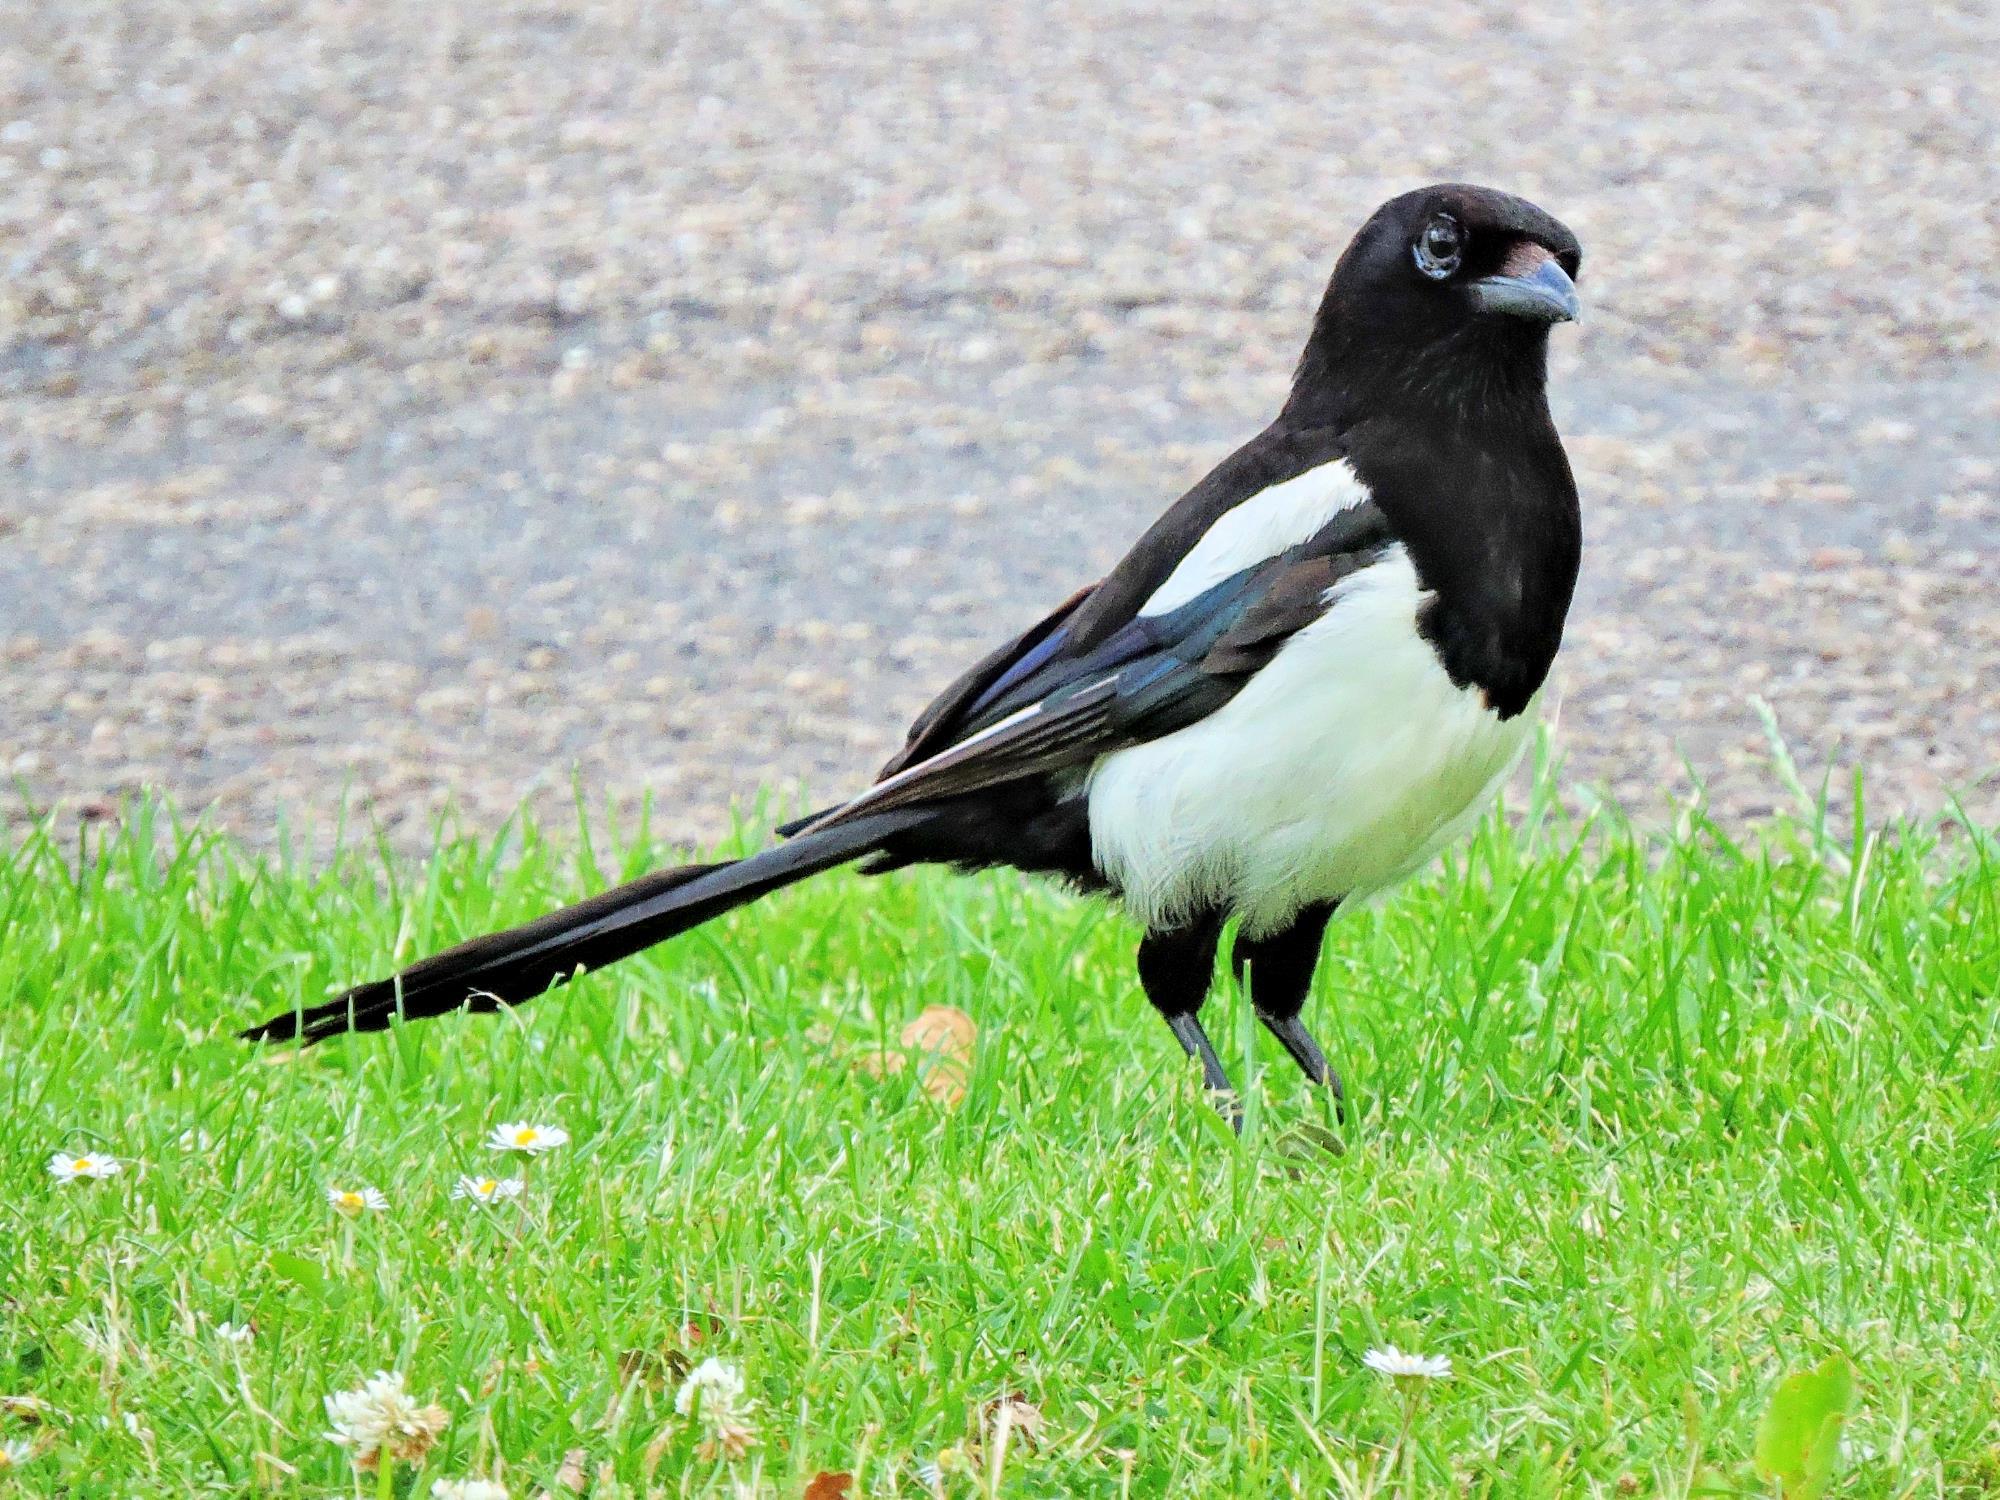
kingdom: Animalia
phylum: Chordata
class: Aves
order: Passeriformes
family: Corvidae
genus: Pica
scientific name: Pica pica
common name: Eurasian magpie
